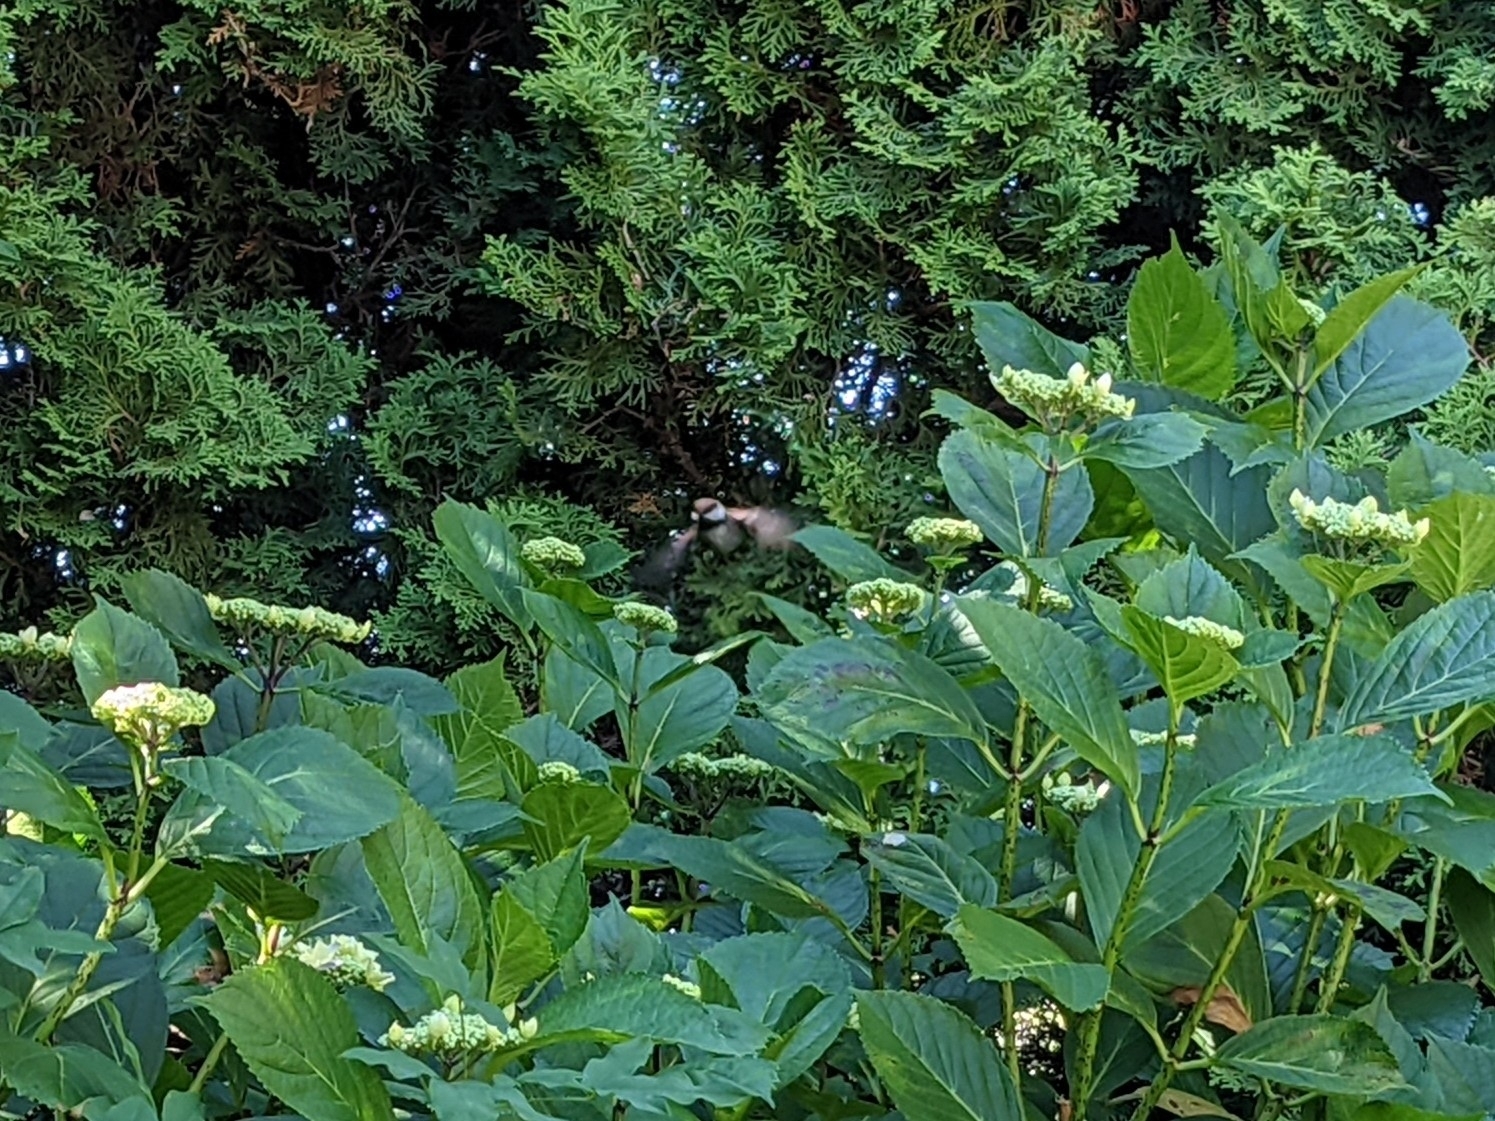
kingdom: Animalia
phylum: Chordata
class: Aves
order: Passeriformes
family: Paridae
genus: Poecile
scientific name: Poecile rufescens
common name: Chestnut-backed chickadee
